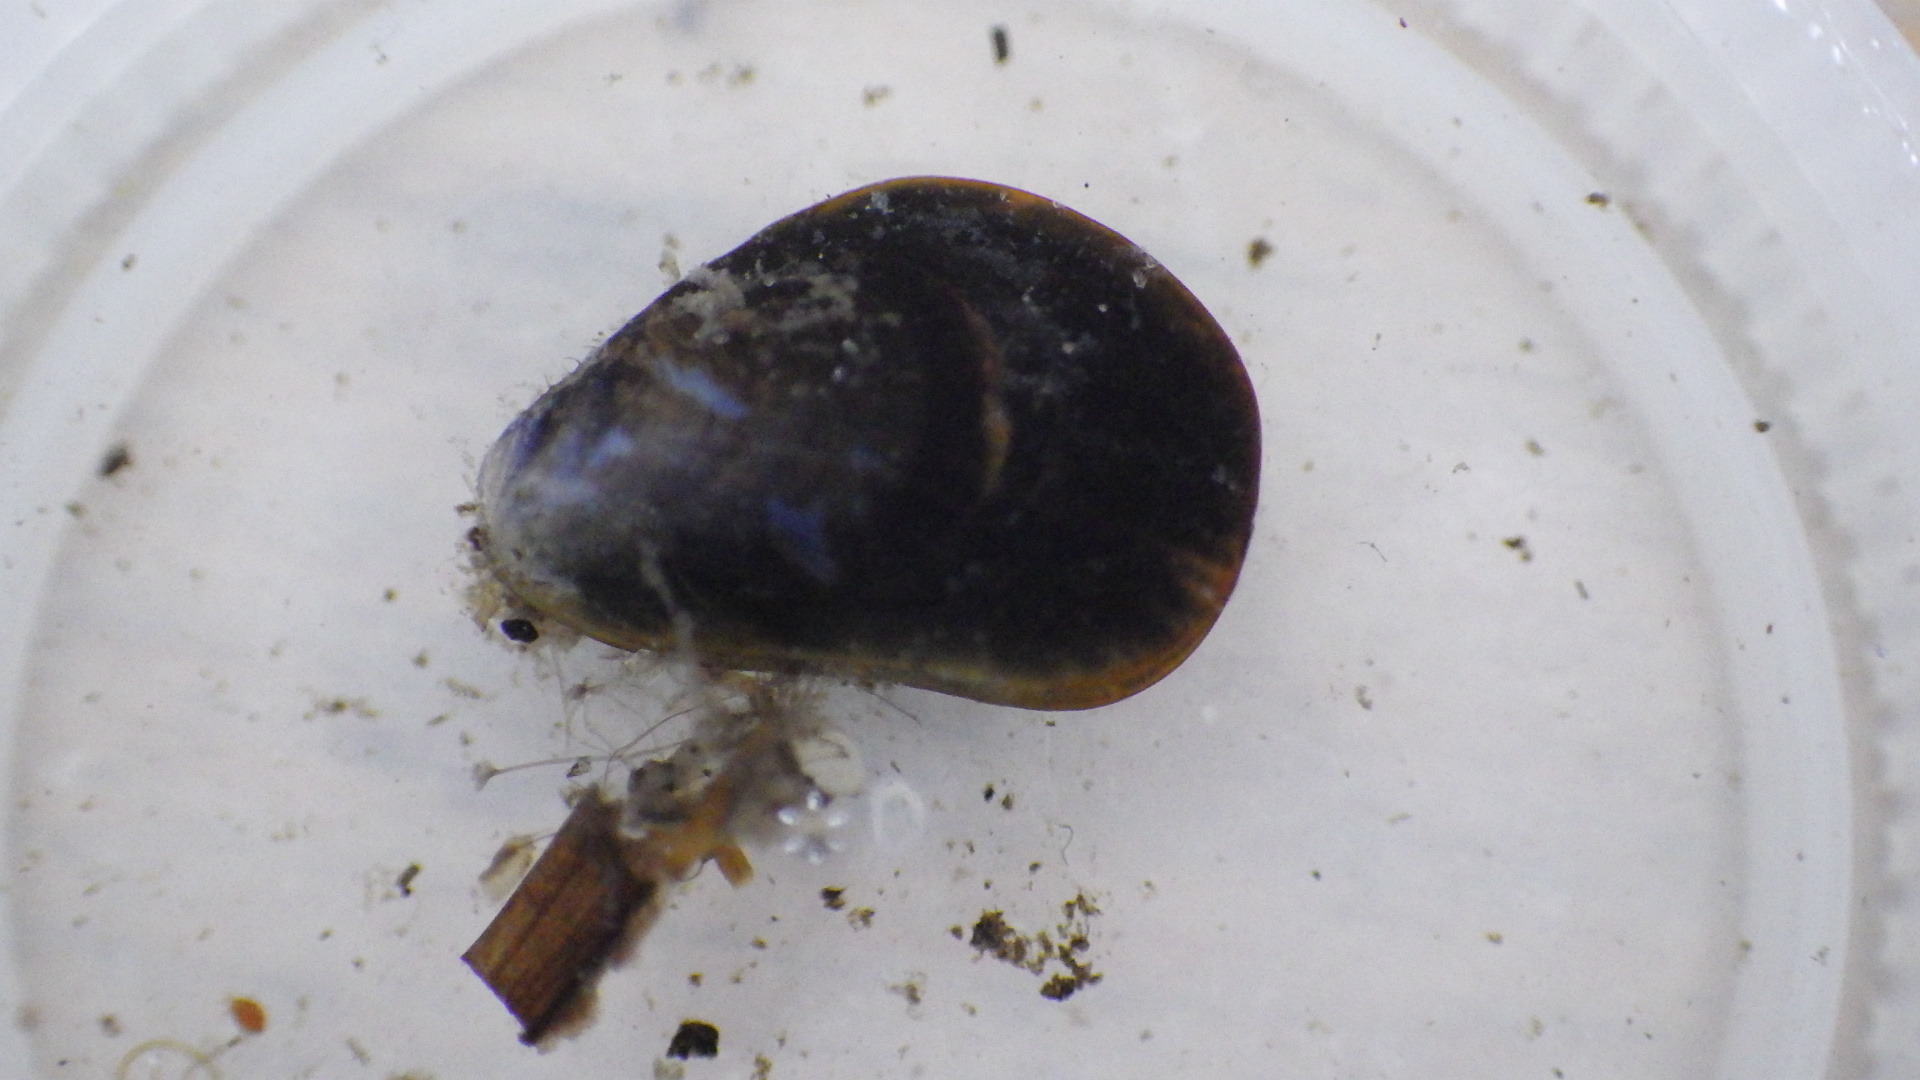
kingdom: Animalia
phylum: Mollusca
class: Bivalvia
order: Mytilida
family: Mytilidae
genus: Mytilus
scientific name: Mytilus edulis
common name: Blue mussel
